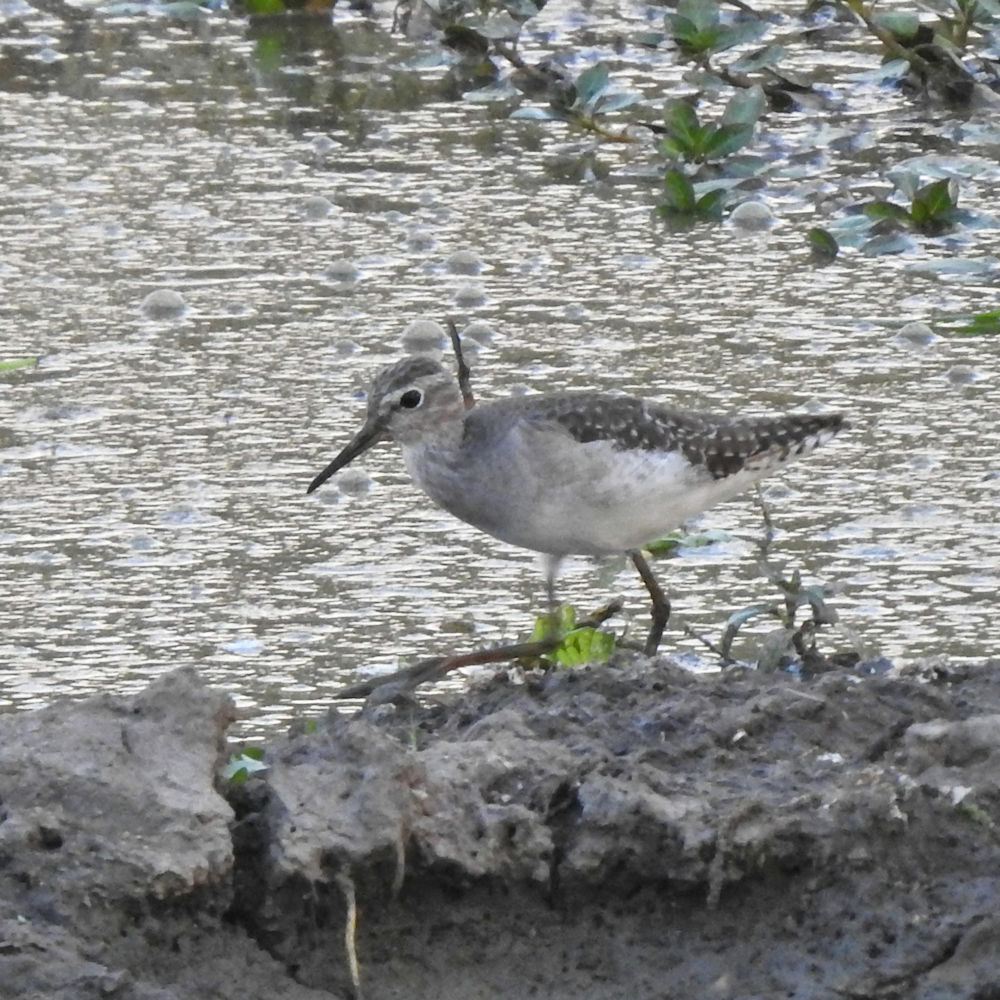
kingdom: Animalia
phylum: Chordata
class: Aves
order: Charadriiformes
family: Scolopacidae
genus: Tringa
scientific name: Tringa glareola
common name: Wood sandpiper
